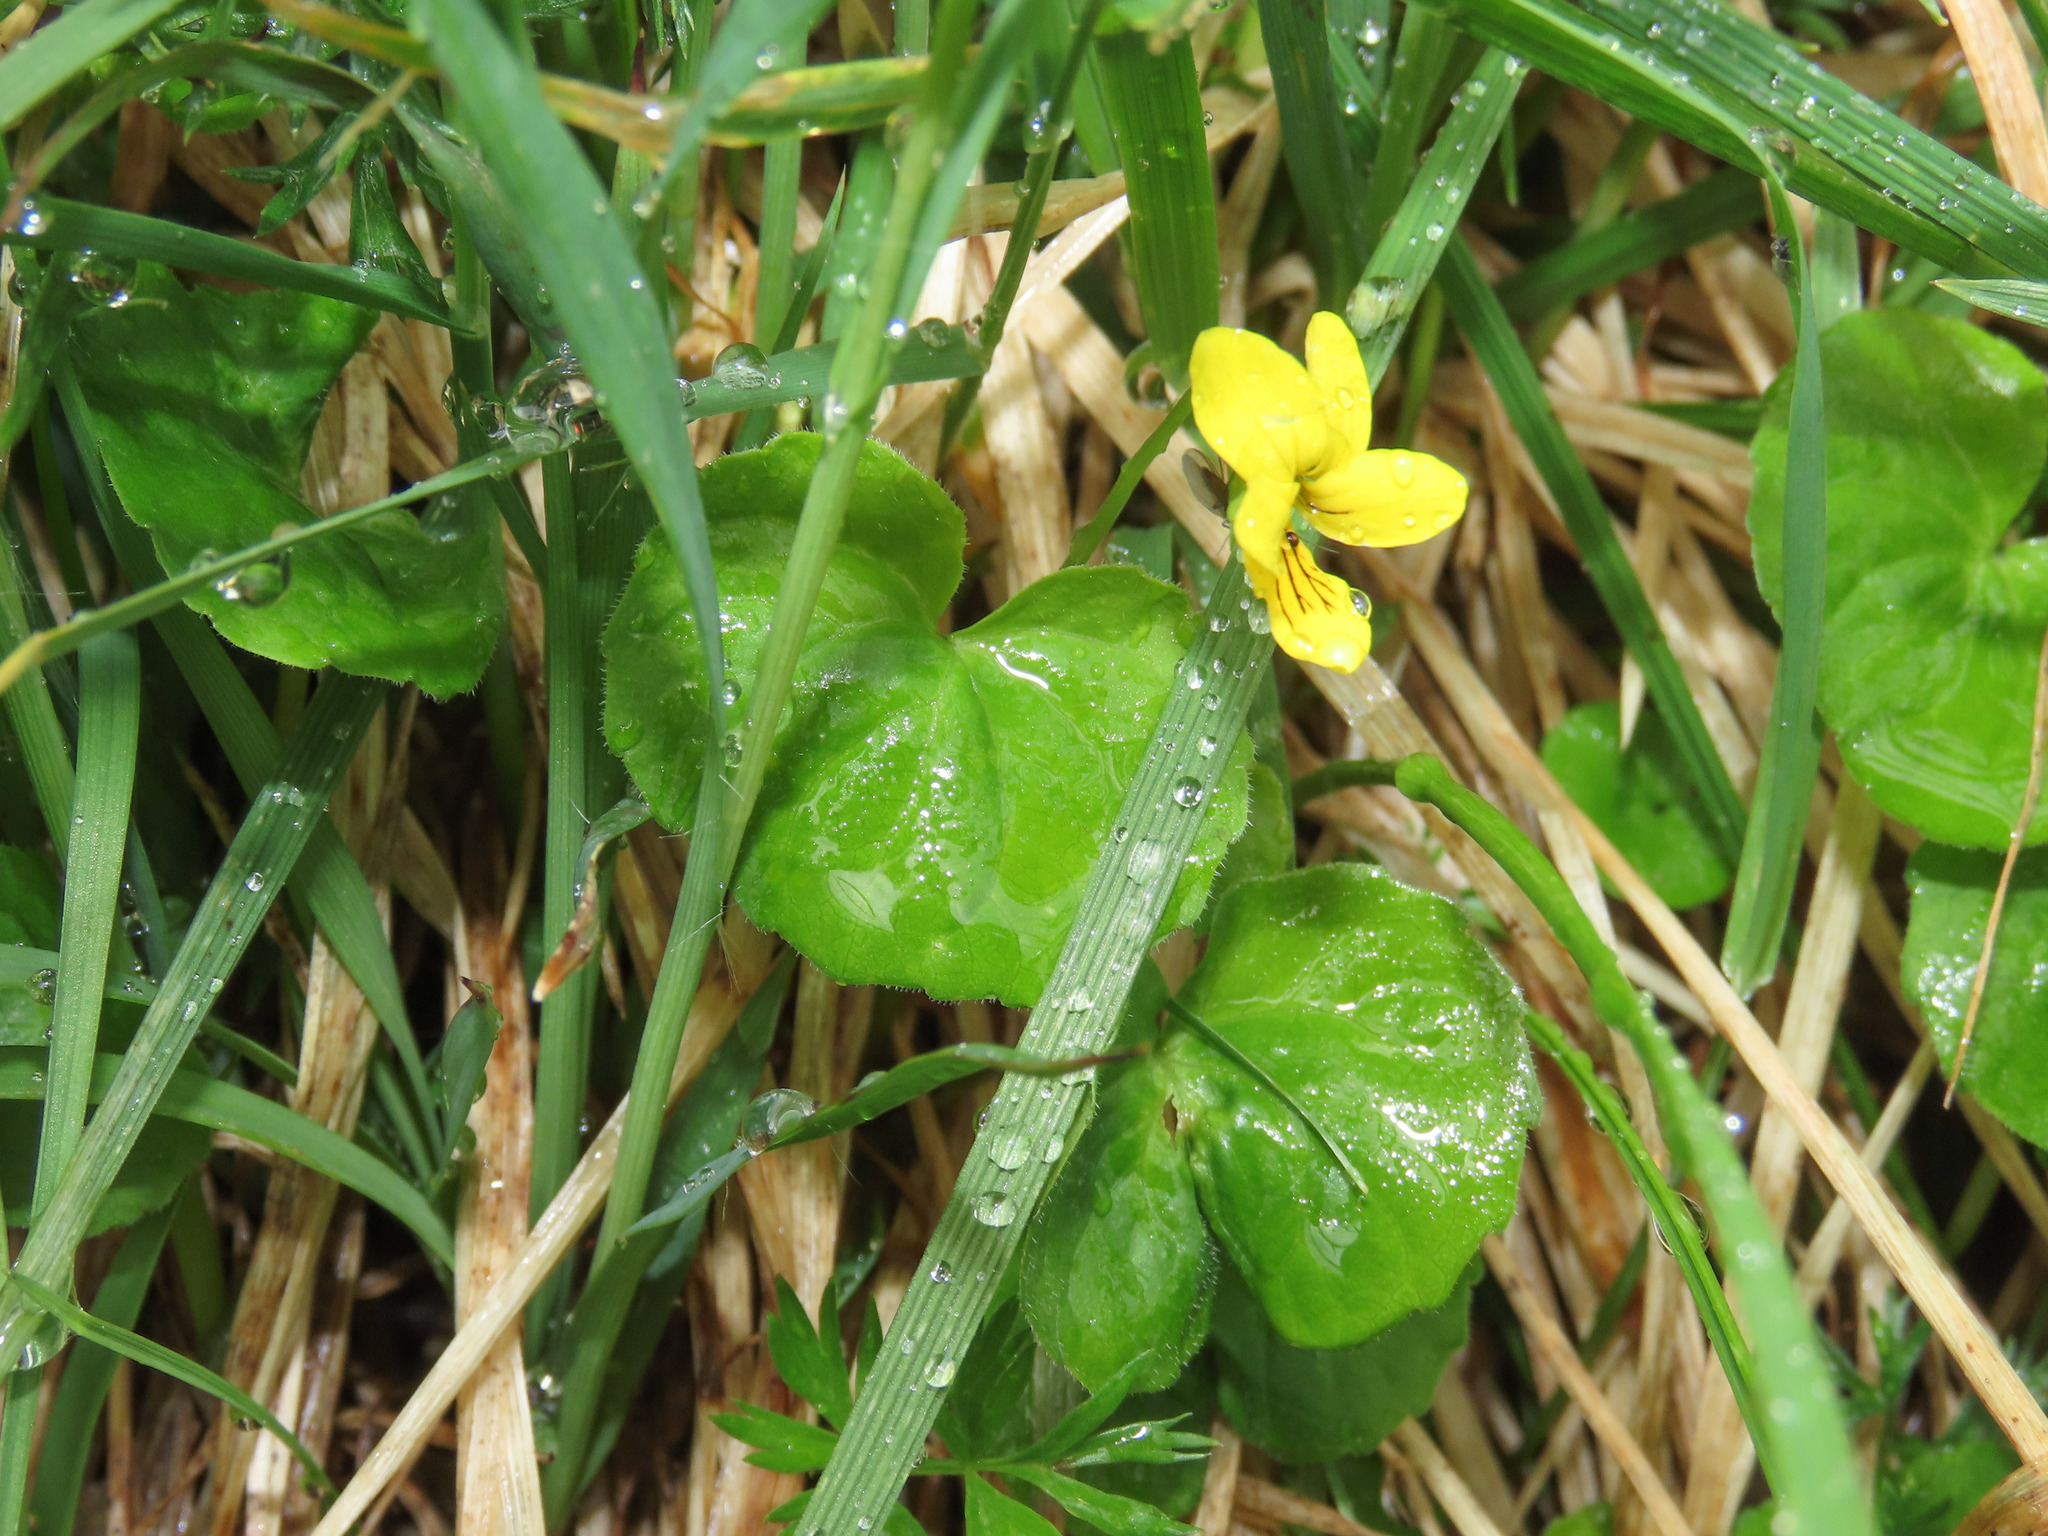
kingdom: Plantae
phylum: Tracheophyta
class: Magnoliopsida
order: Malpighiales
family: Violaceae
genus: Viola
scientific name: Viola biflora
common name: Alpine yellow violet
